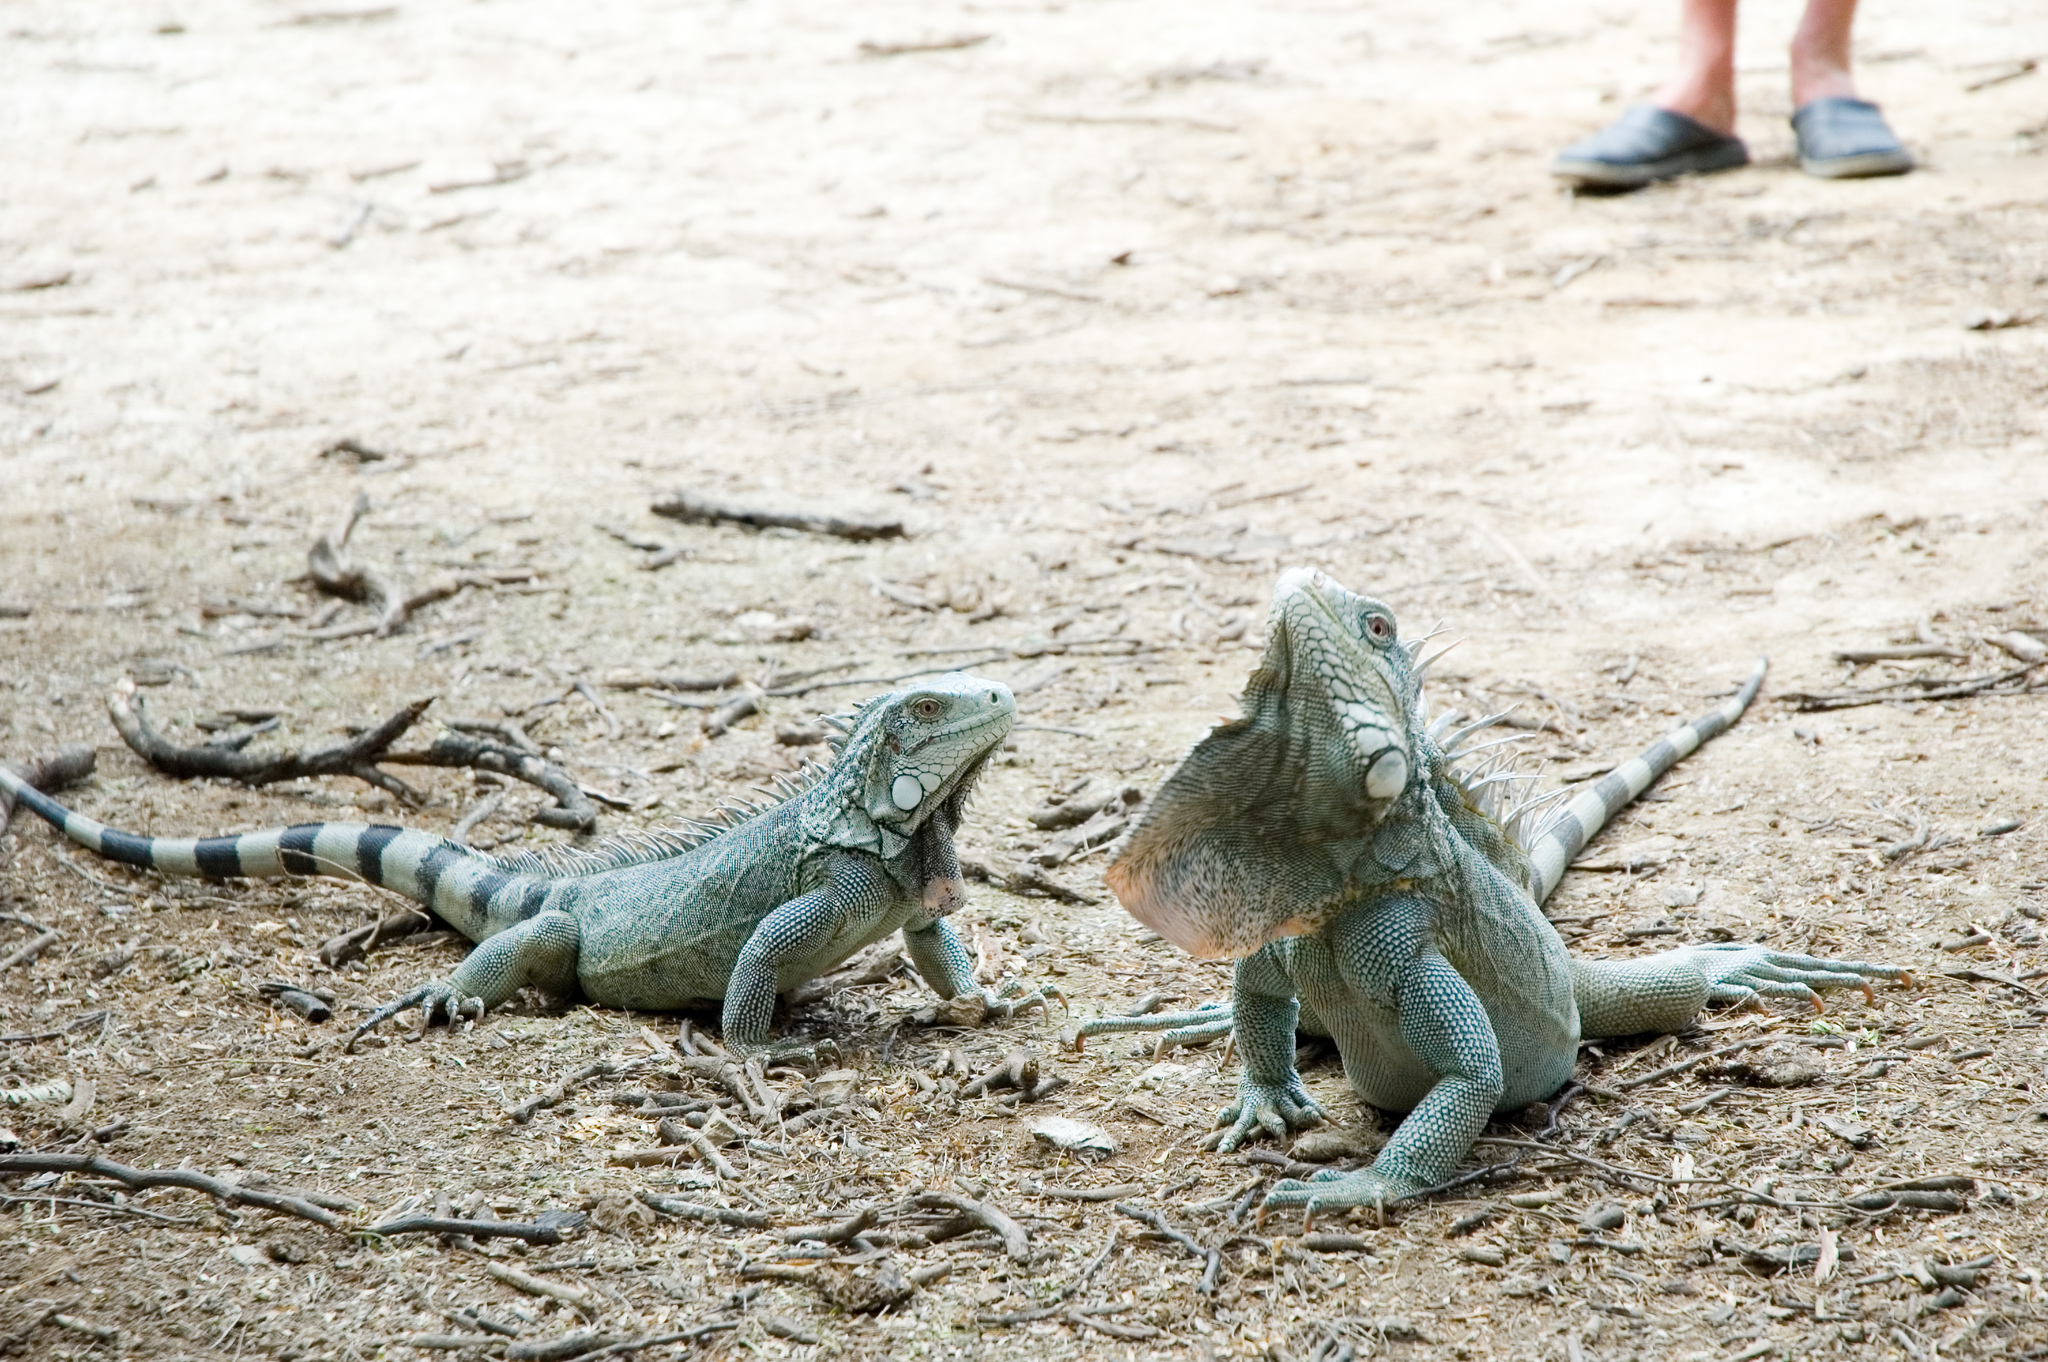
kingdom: Animalia
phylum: Chordata
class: Squamata
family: Iguanidae
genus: Iguana
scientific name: Iguana iguana
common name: Green iguana
